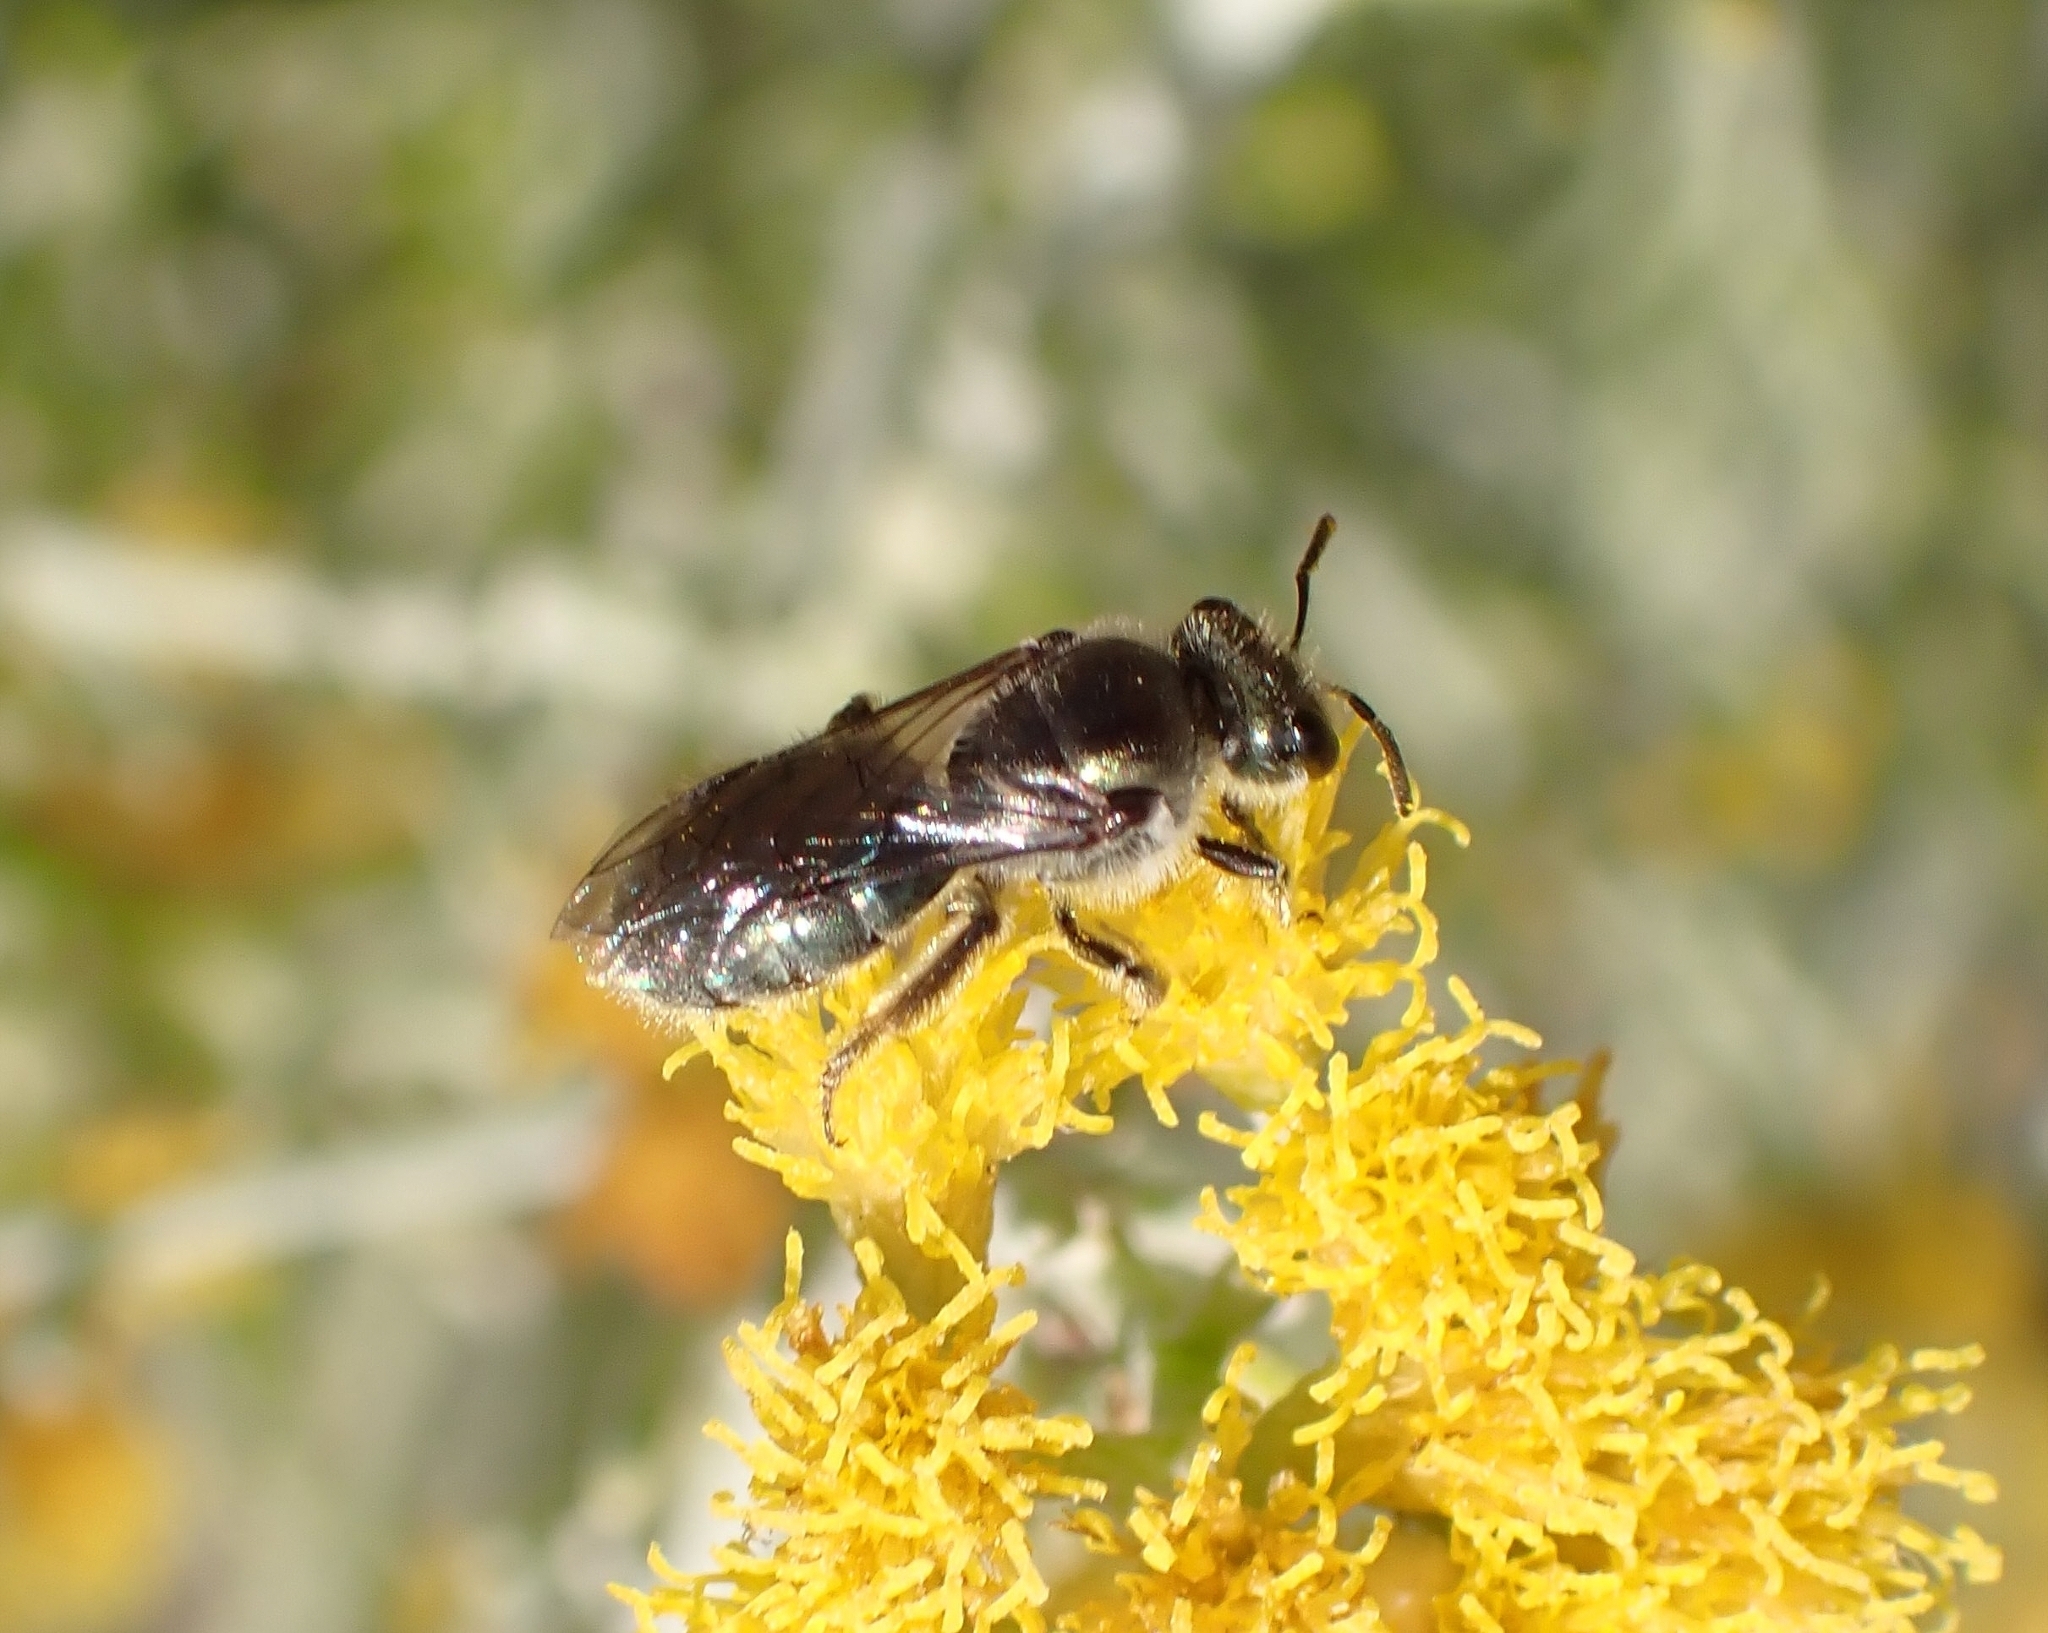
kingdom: Animalia
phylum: Arthropoda
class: Insecta
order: Hymenoptera
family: Halictidae
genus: Lasioglossum
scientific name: Lasioglossum viride
